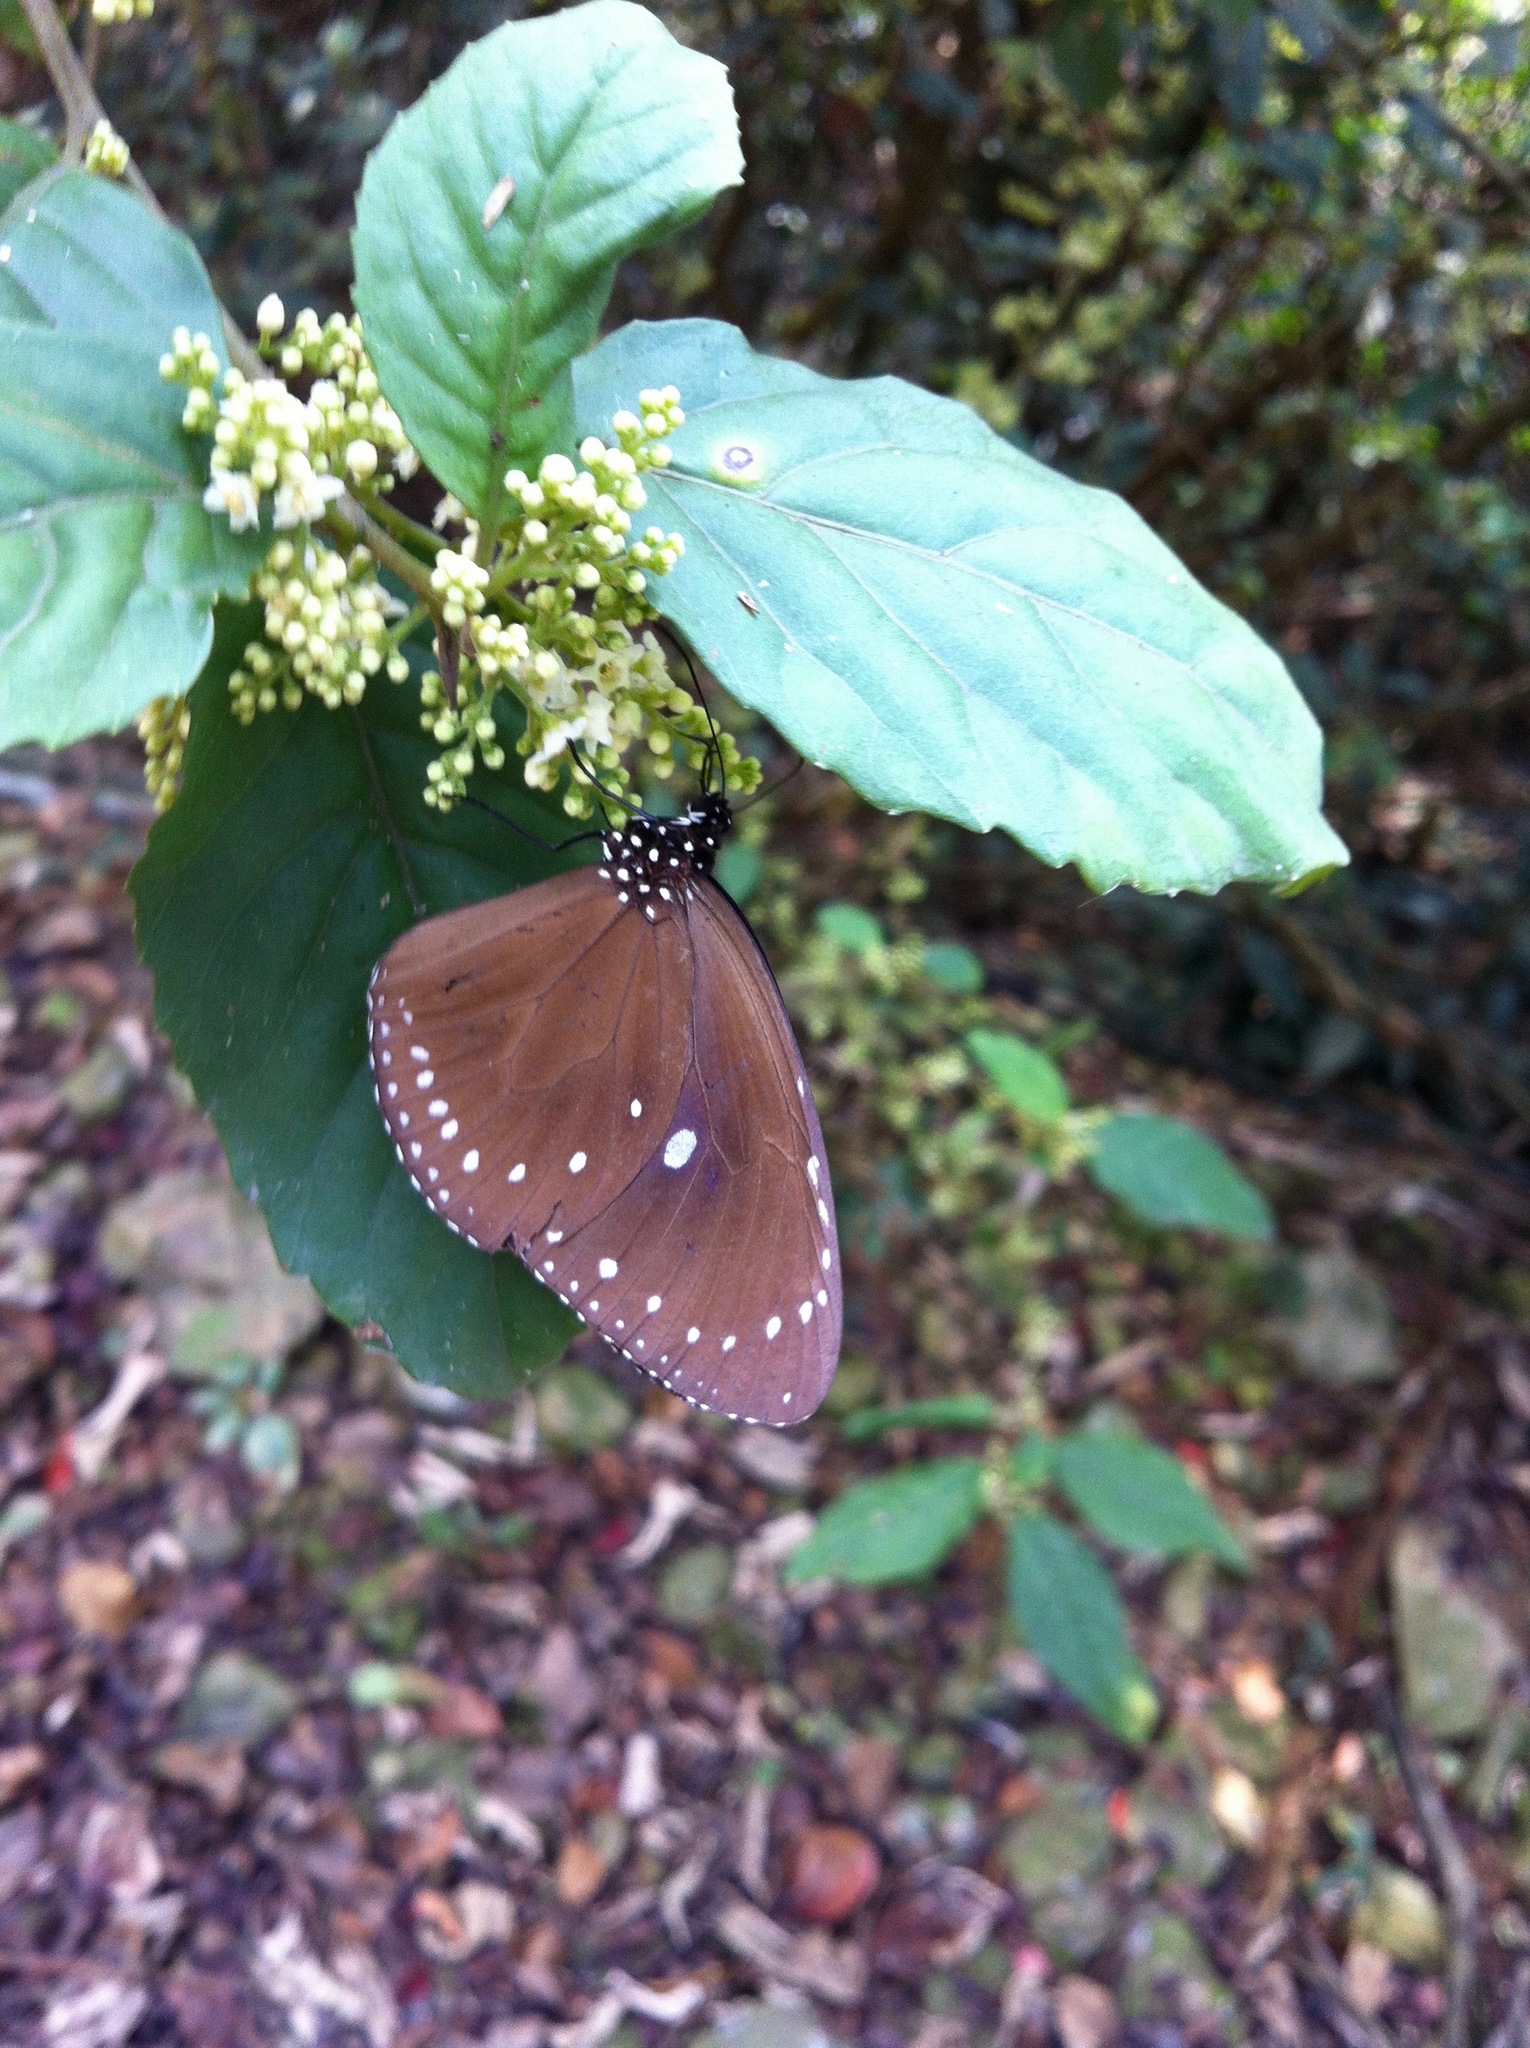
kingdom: Animalia
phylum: Arthropoda
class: Insecta
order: Lepidoptera
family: Nymphalidae
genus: Euploea
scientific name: Euploea tulliolus
